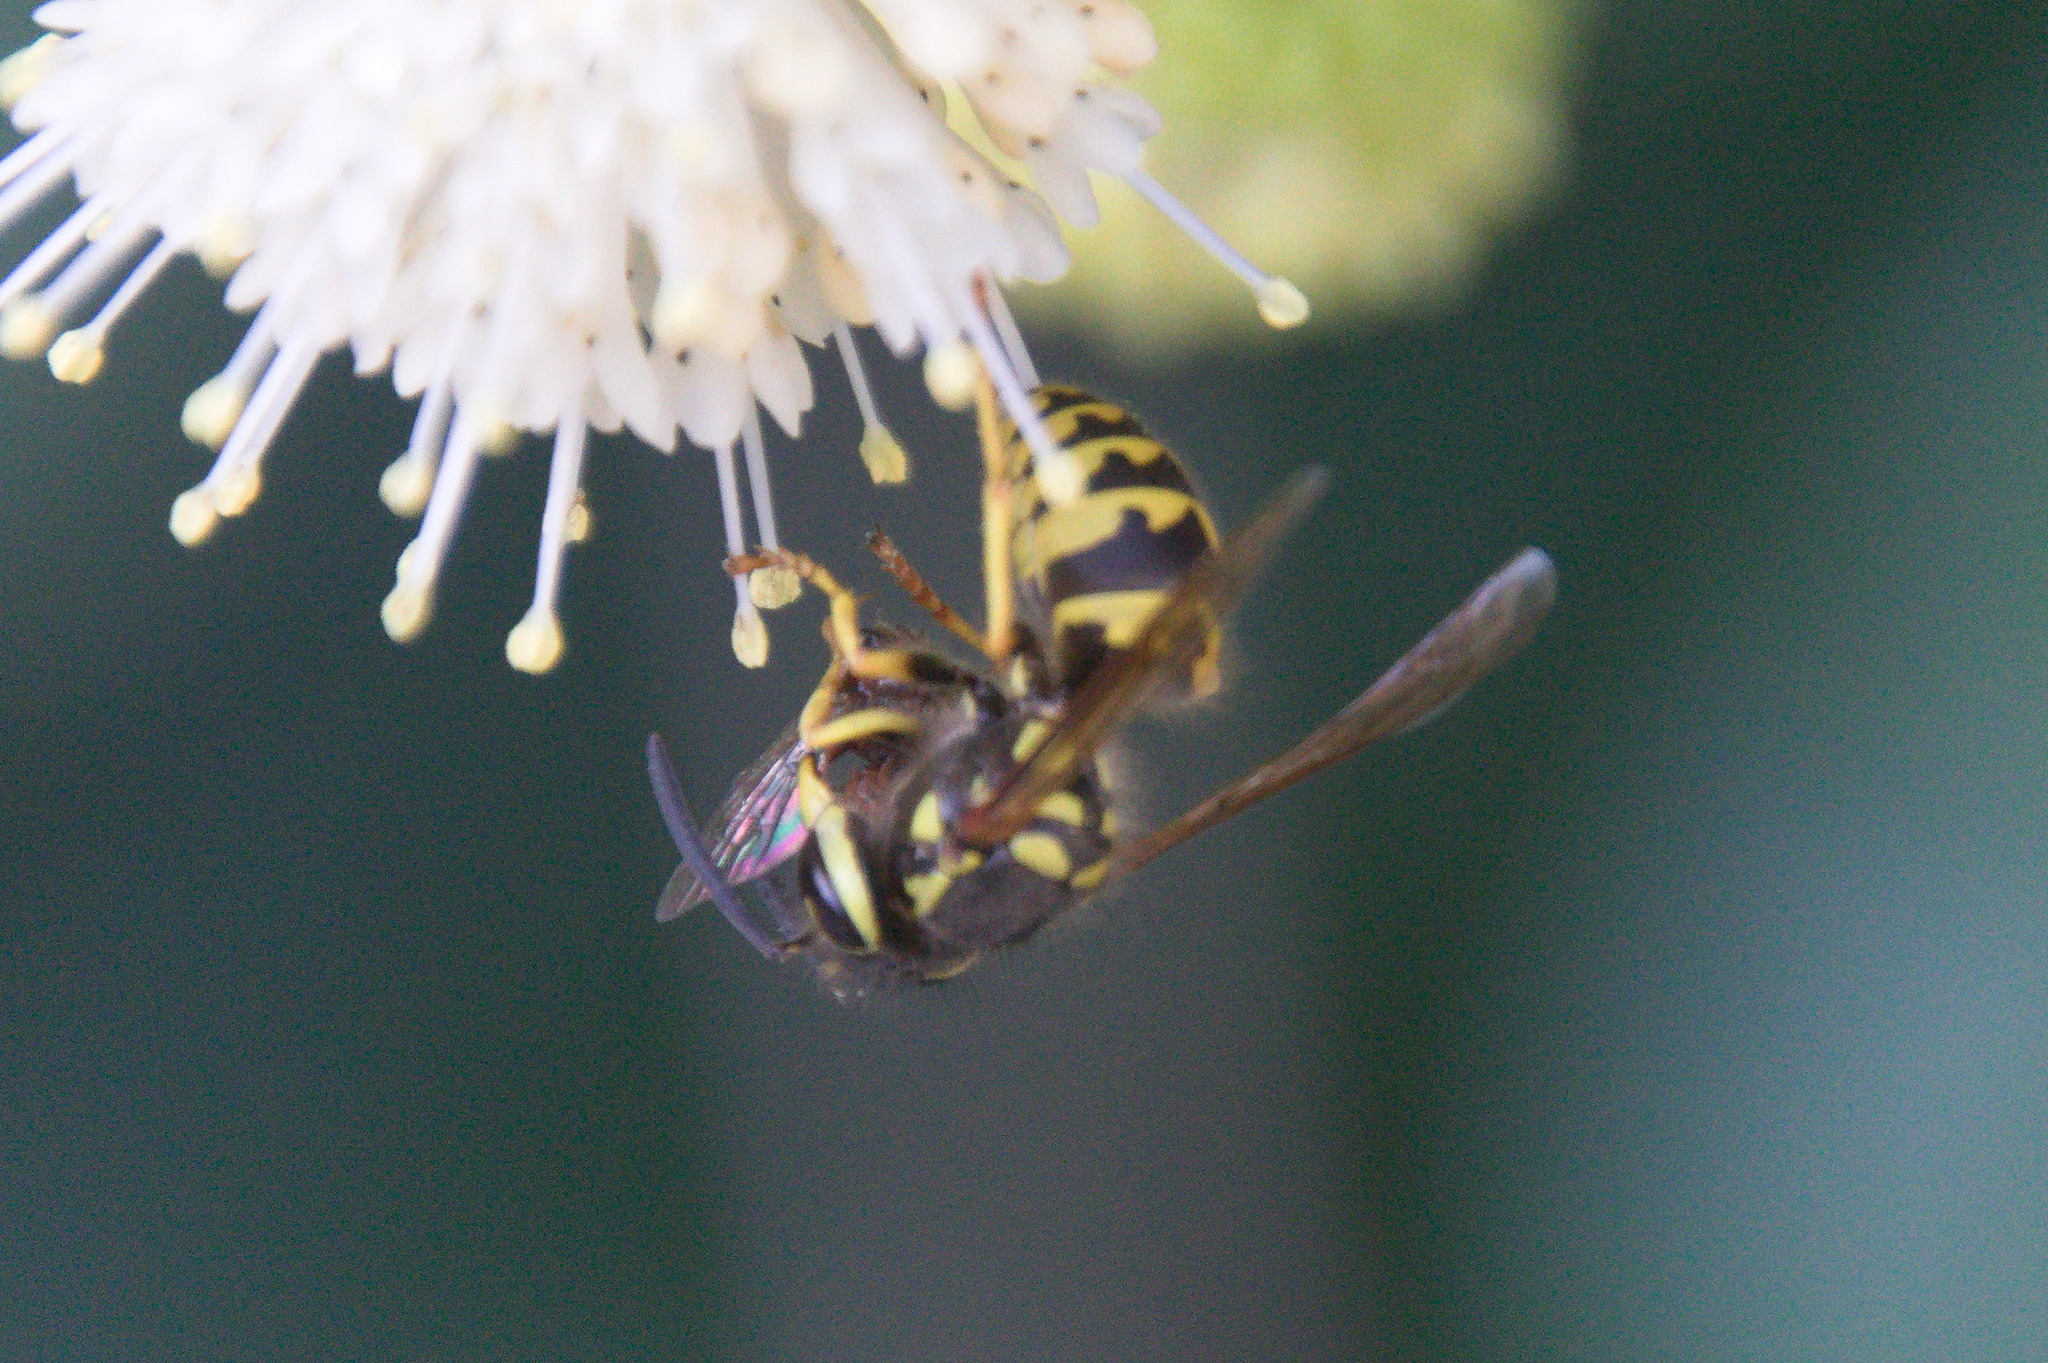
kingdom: Animalia
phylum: Arthropoda
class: Insecta
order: Hymenoptera
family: Vespidae
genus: Vespula
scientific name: Vespula pensylvanica
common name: Western yellowjacket
